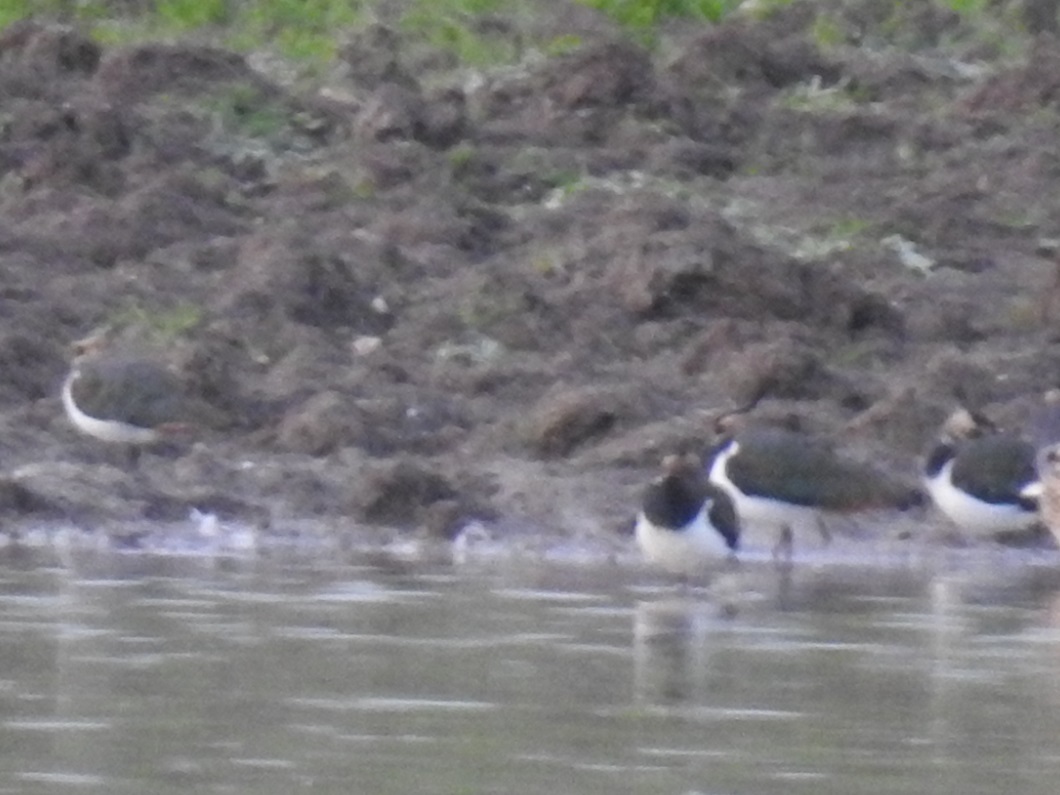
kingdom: Animalia
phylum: Chordata
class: Aves
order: Charadriiformes
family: Charadriidae
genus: Vanellus
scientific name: Vanellus vanellus
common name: Northern lapwing
